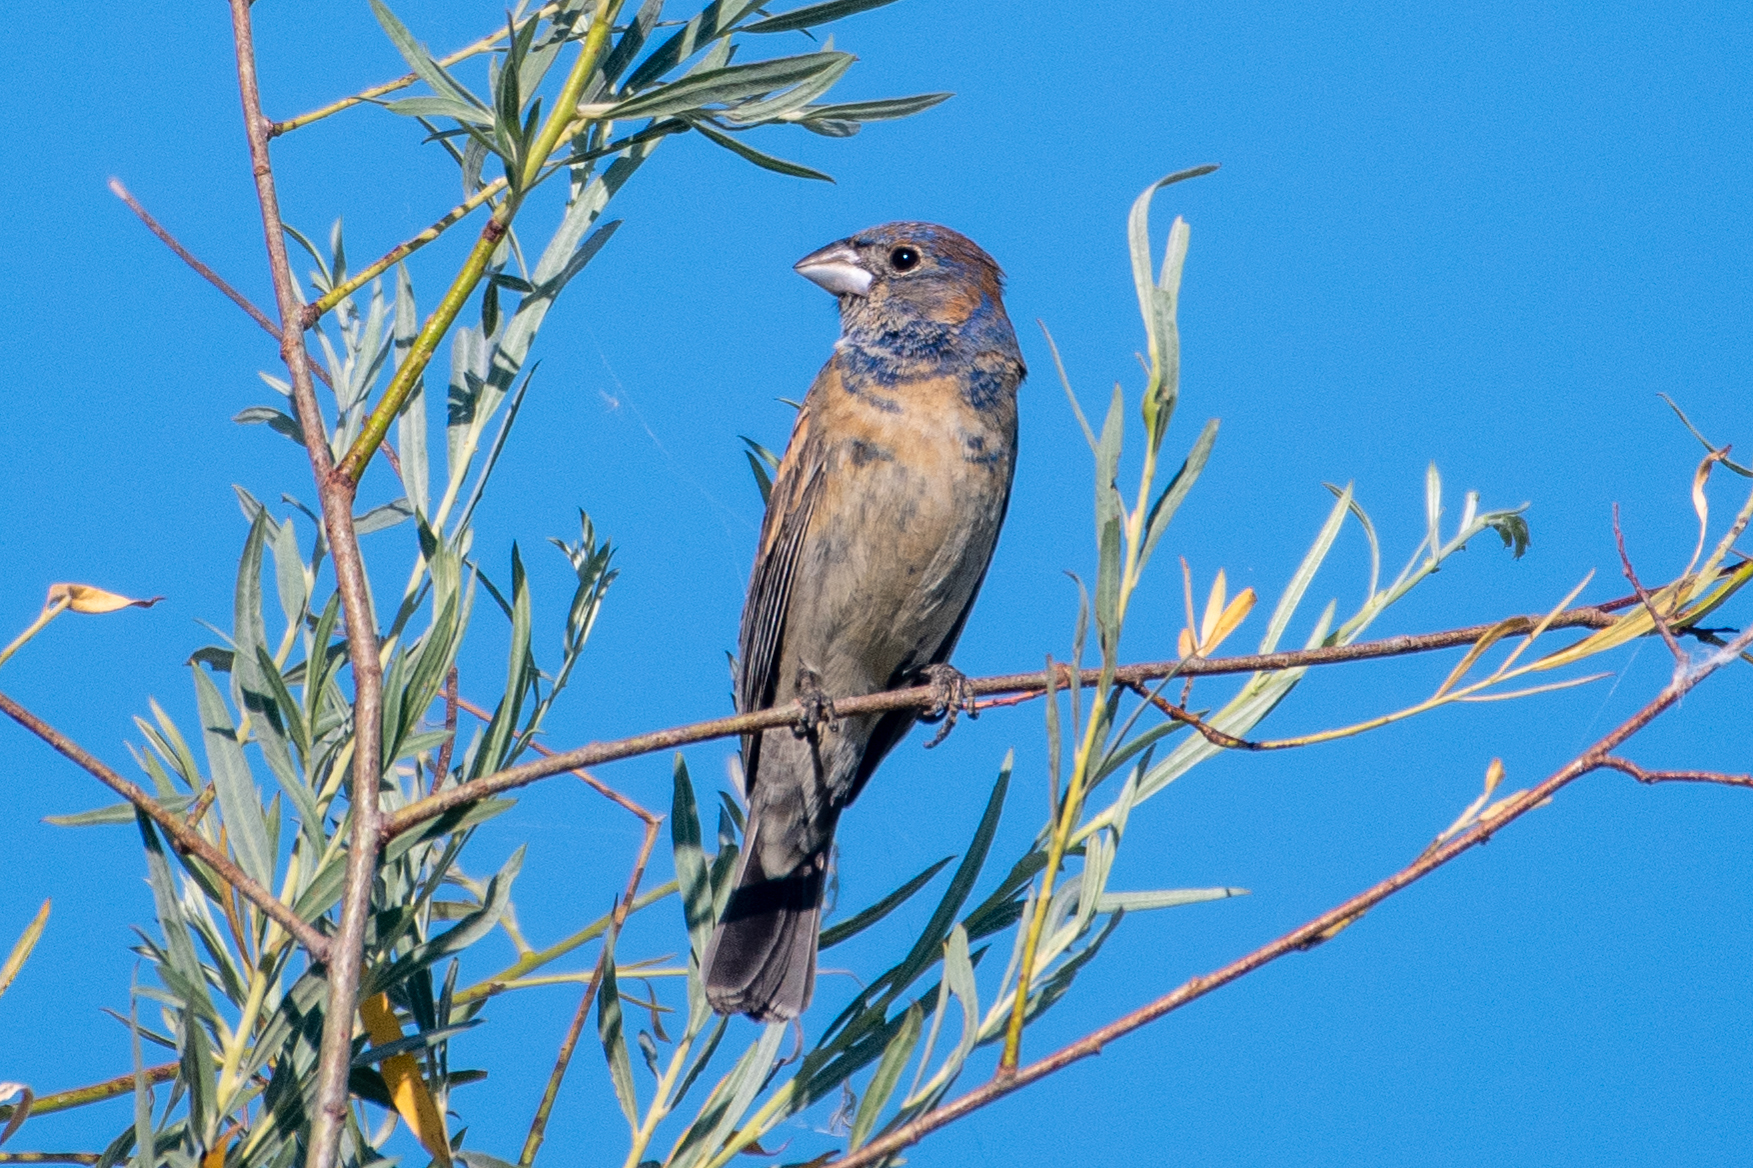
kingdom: Animalia
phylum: Chordata
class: Aves
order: Passeriformes
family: Cardinalidae
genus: Passerina
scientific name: Passerina caerulea
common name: Blue grosbeak
